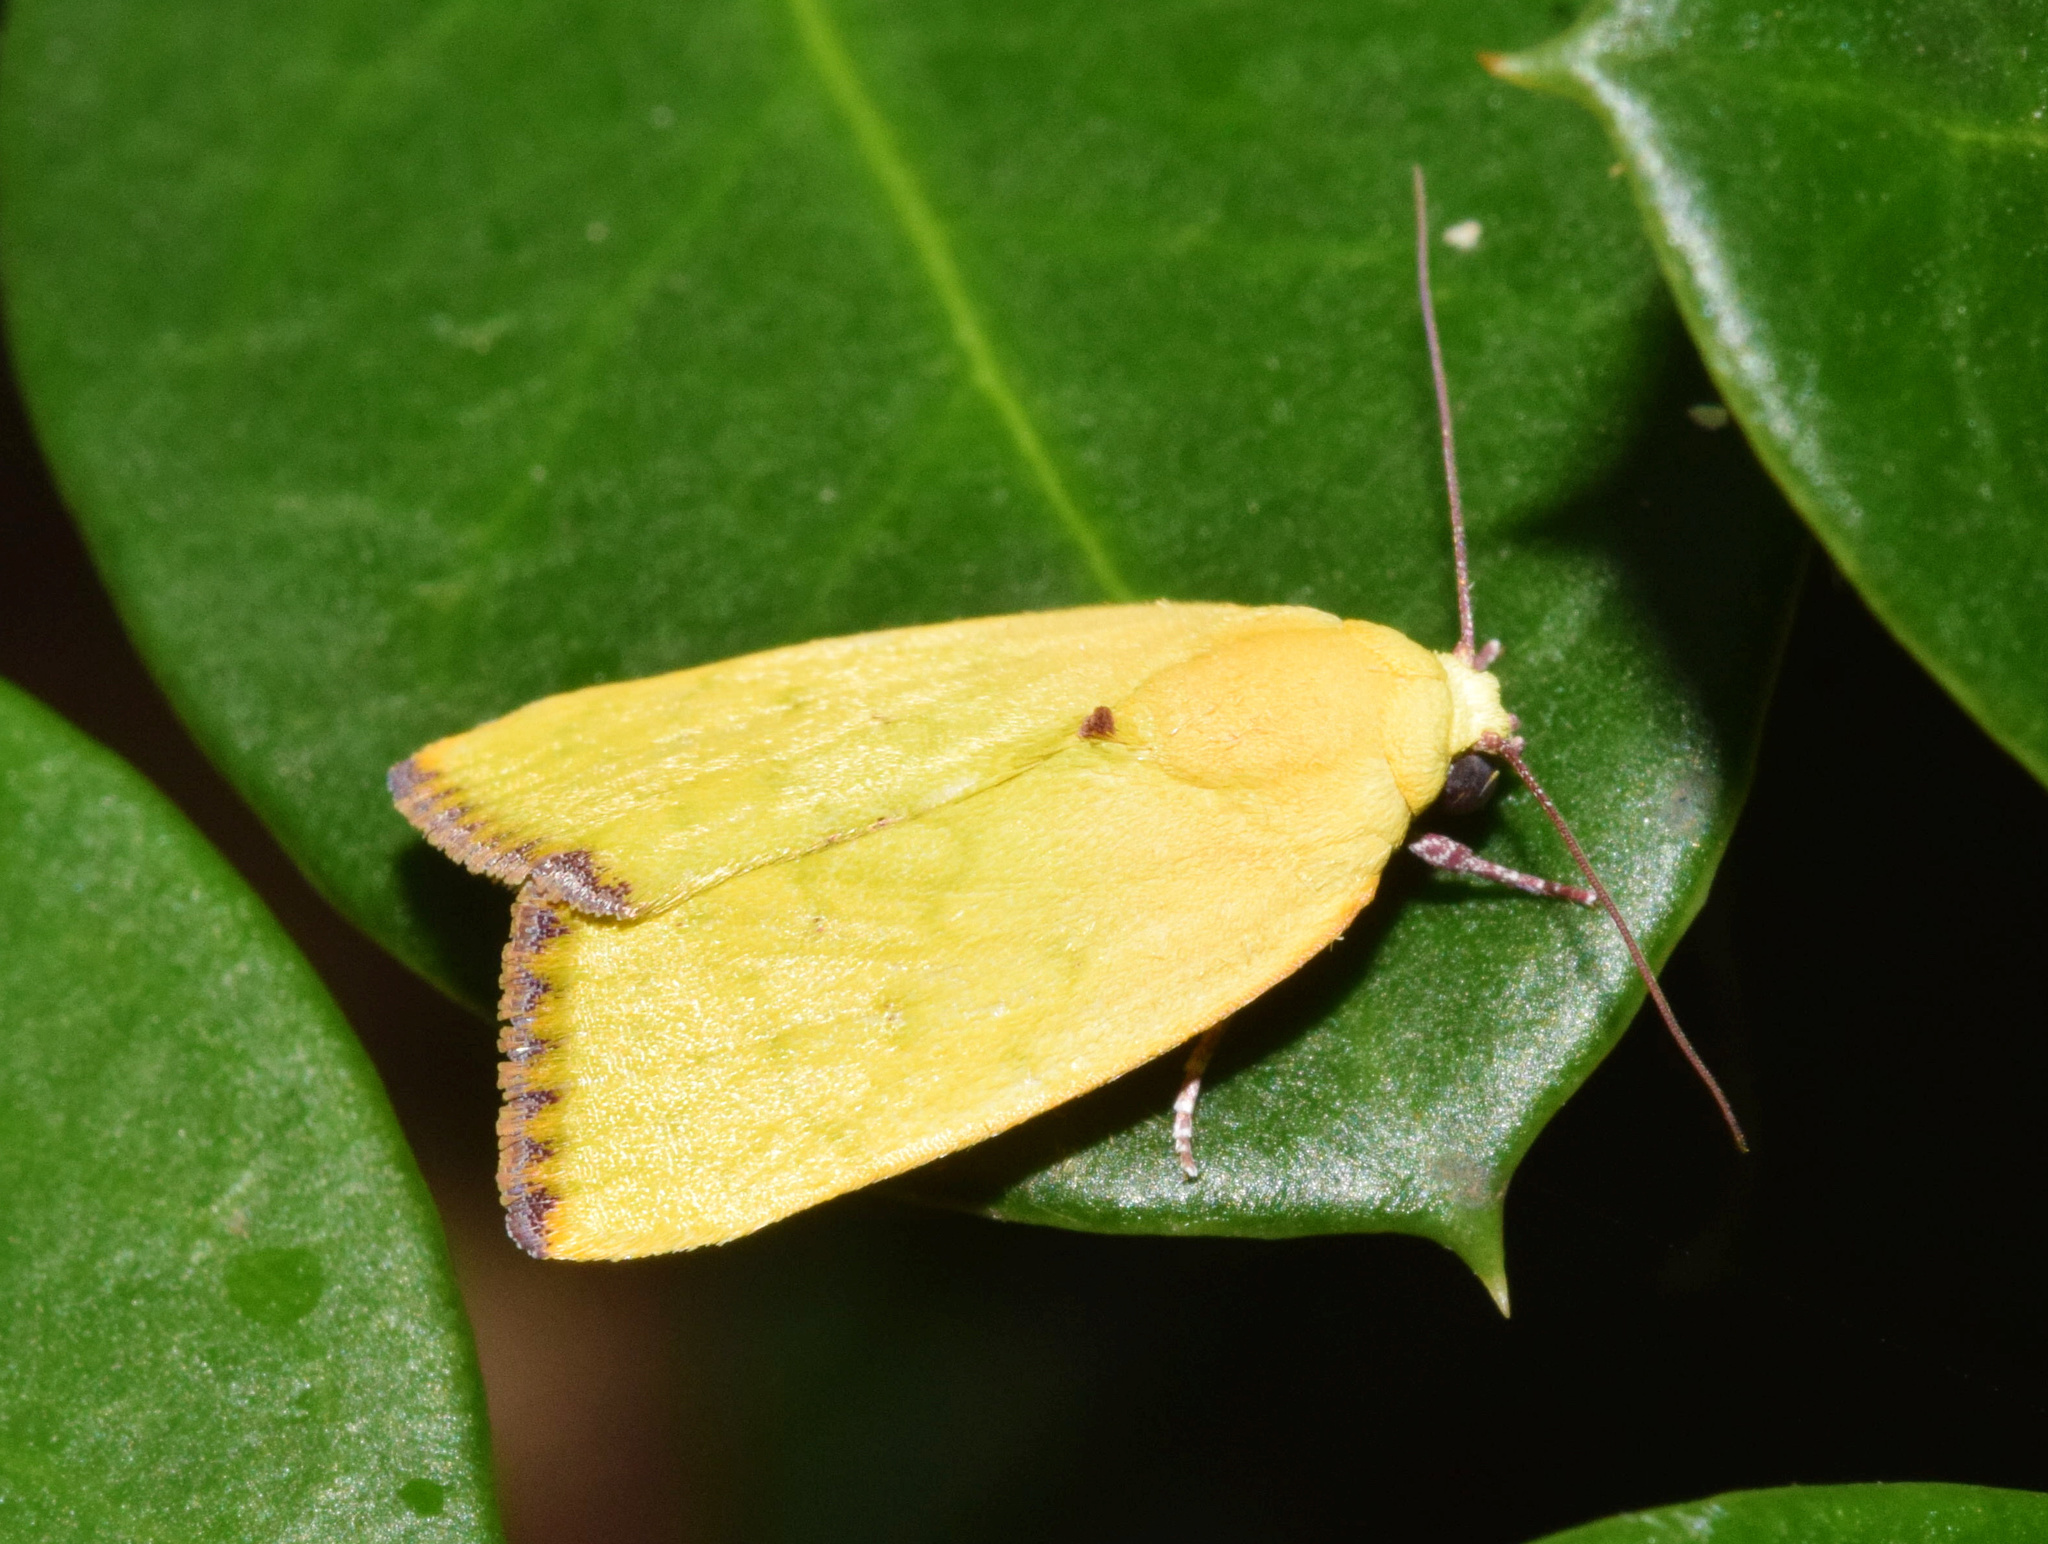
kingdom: Animalia
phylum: Arthropoda
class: Insecta
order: Lepidoptera
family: Nolidae
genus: Earias
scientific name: Earias biplaga
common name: Spiny bollworm
